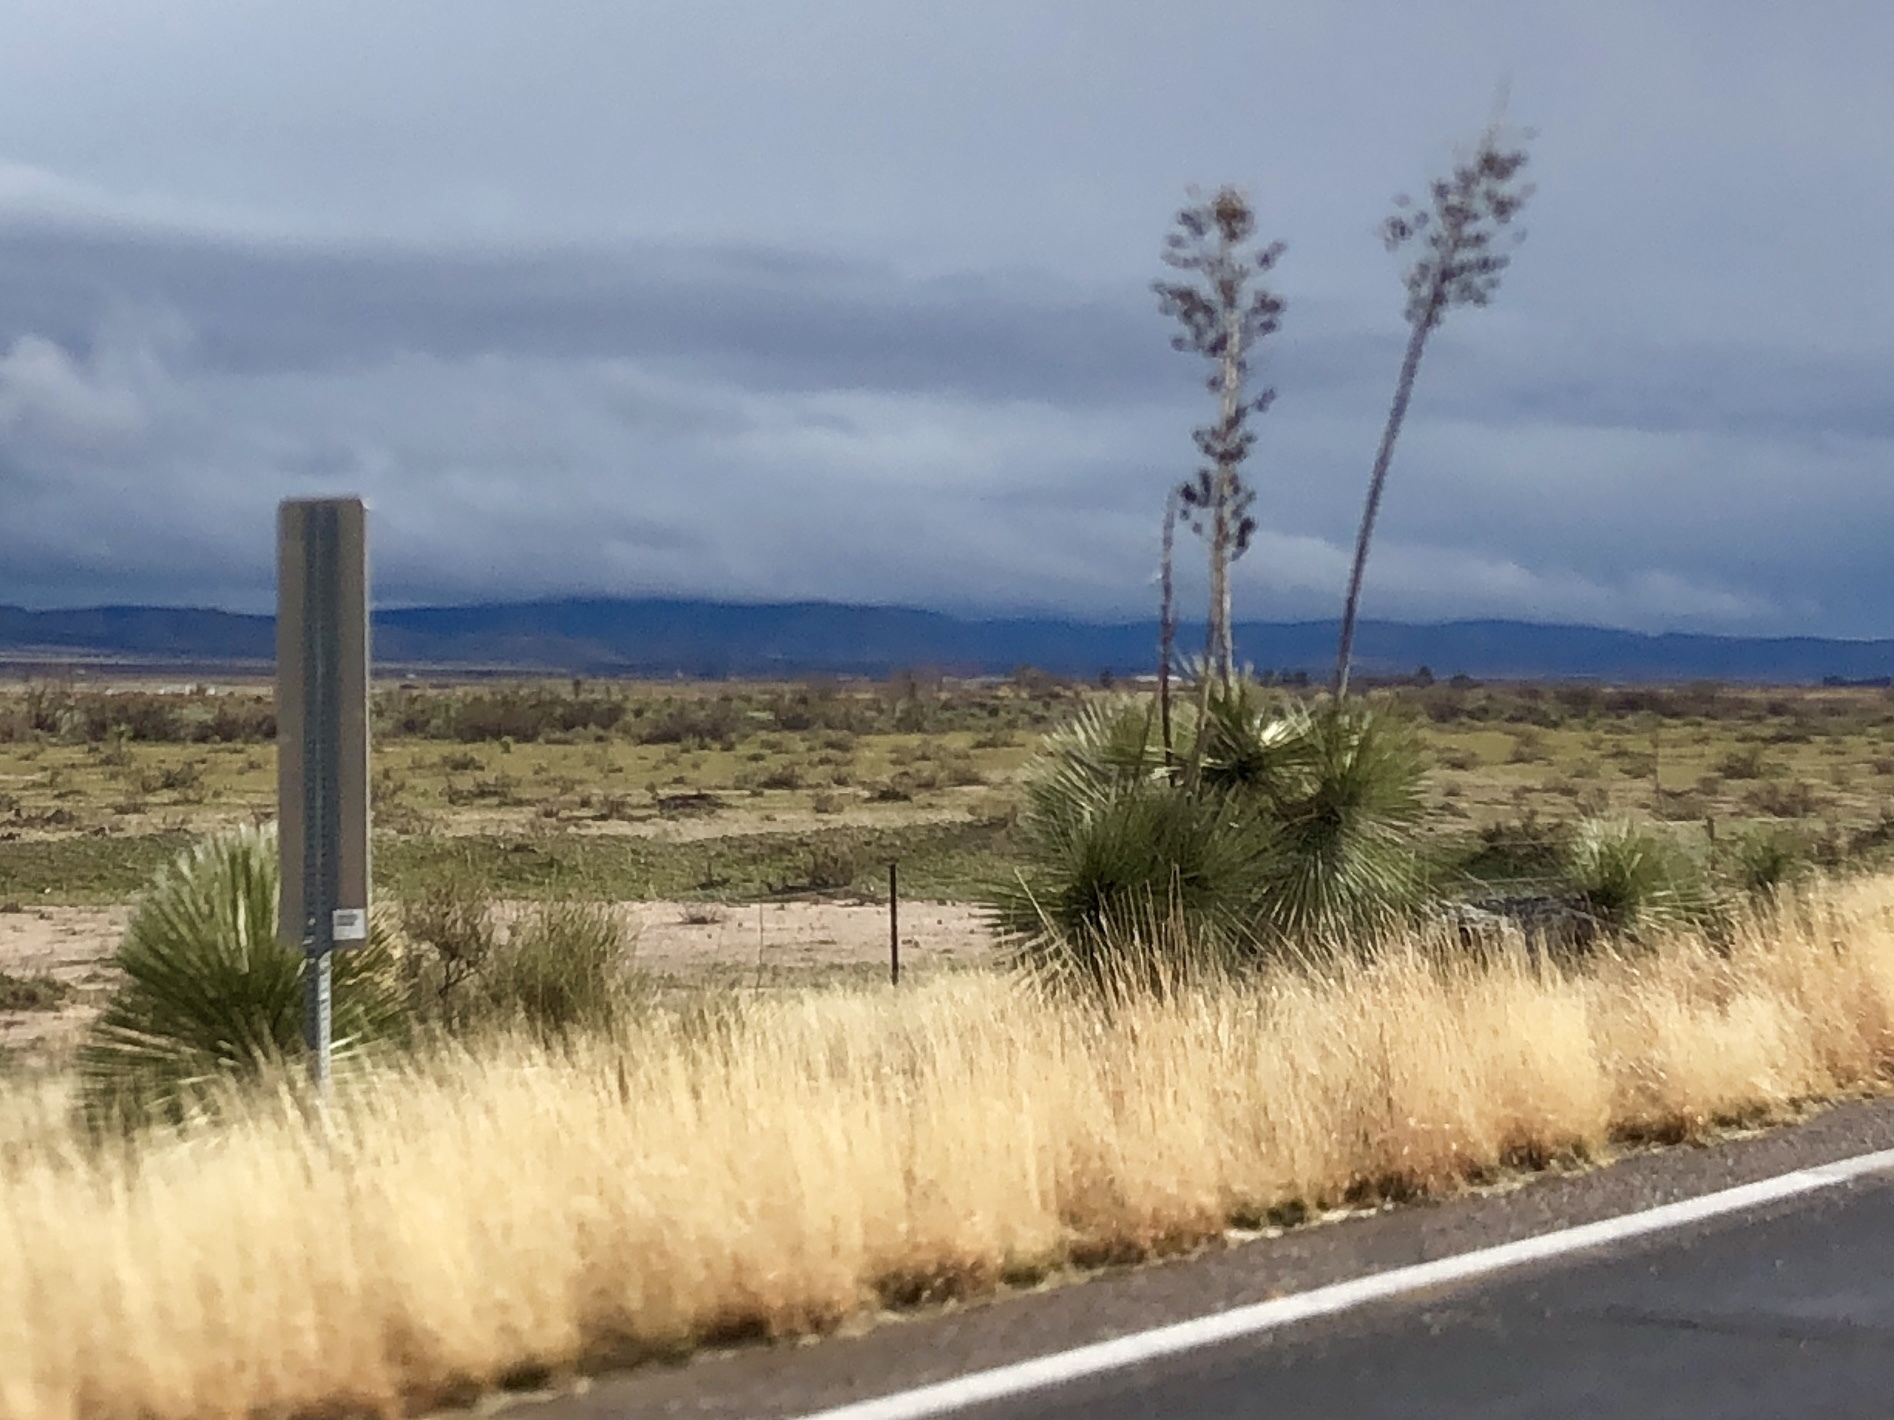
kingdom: Plantae
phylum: Tracheophyta
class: Liliopsida
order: Asparagales
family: Asparagaceae
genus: Yucca
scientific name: Yucca elata
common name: Palmella
